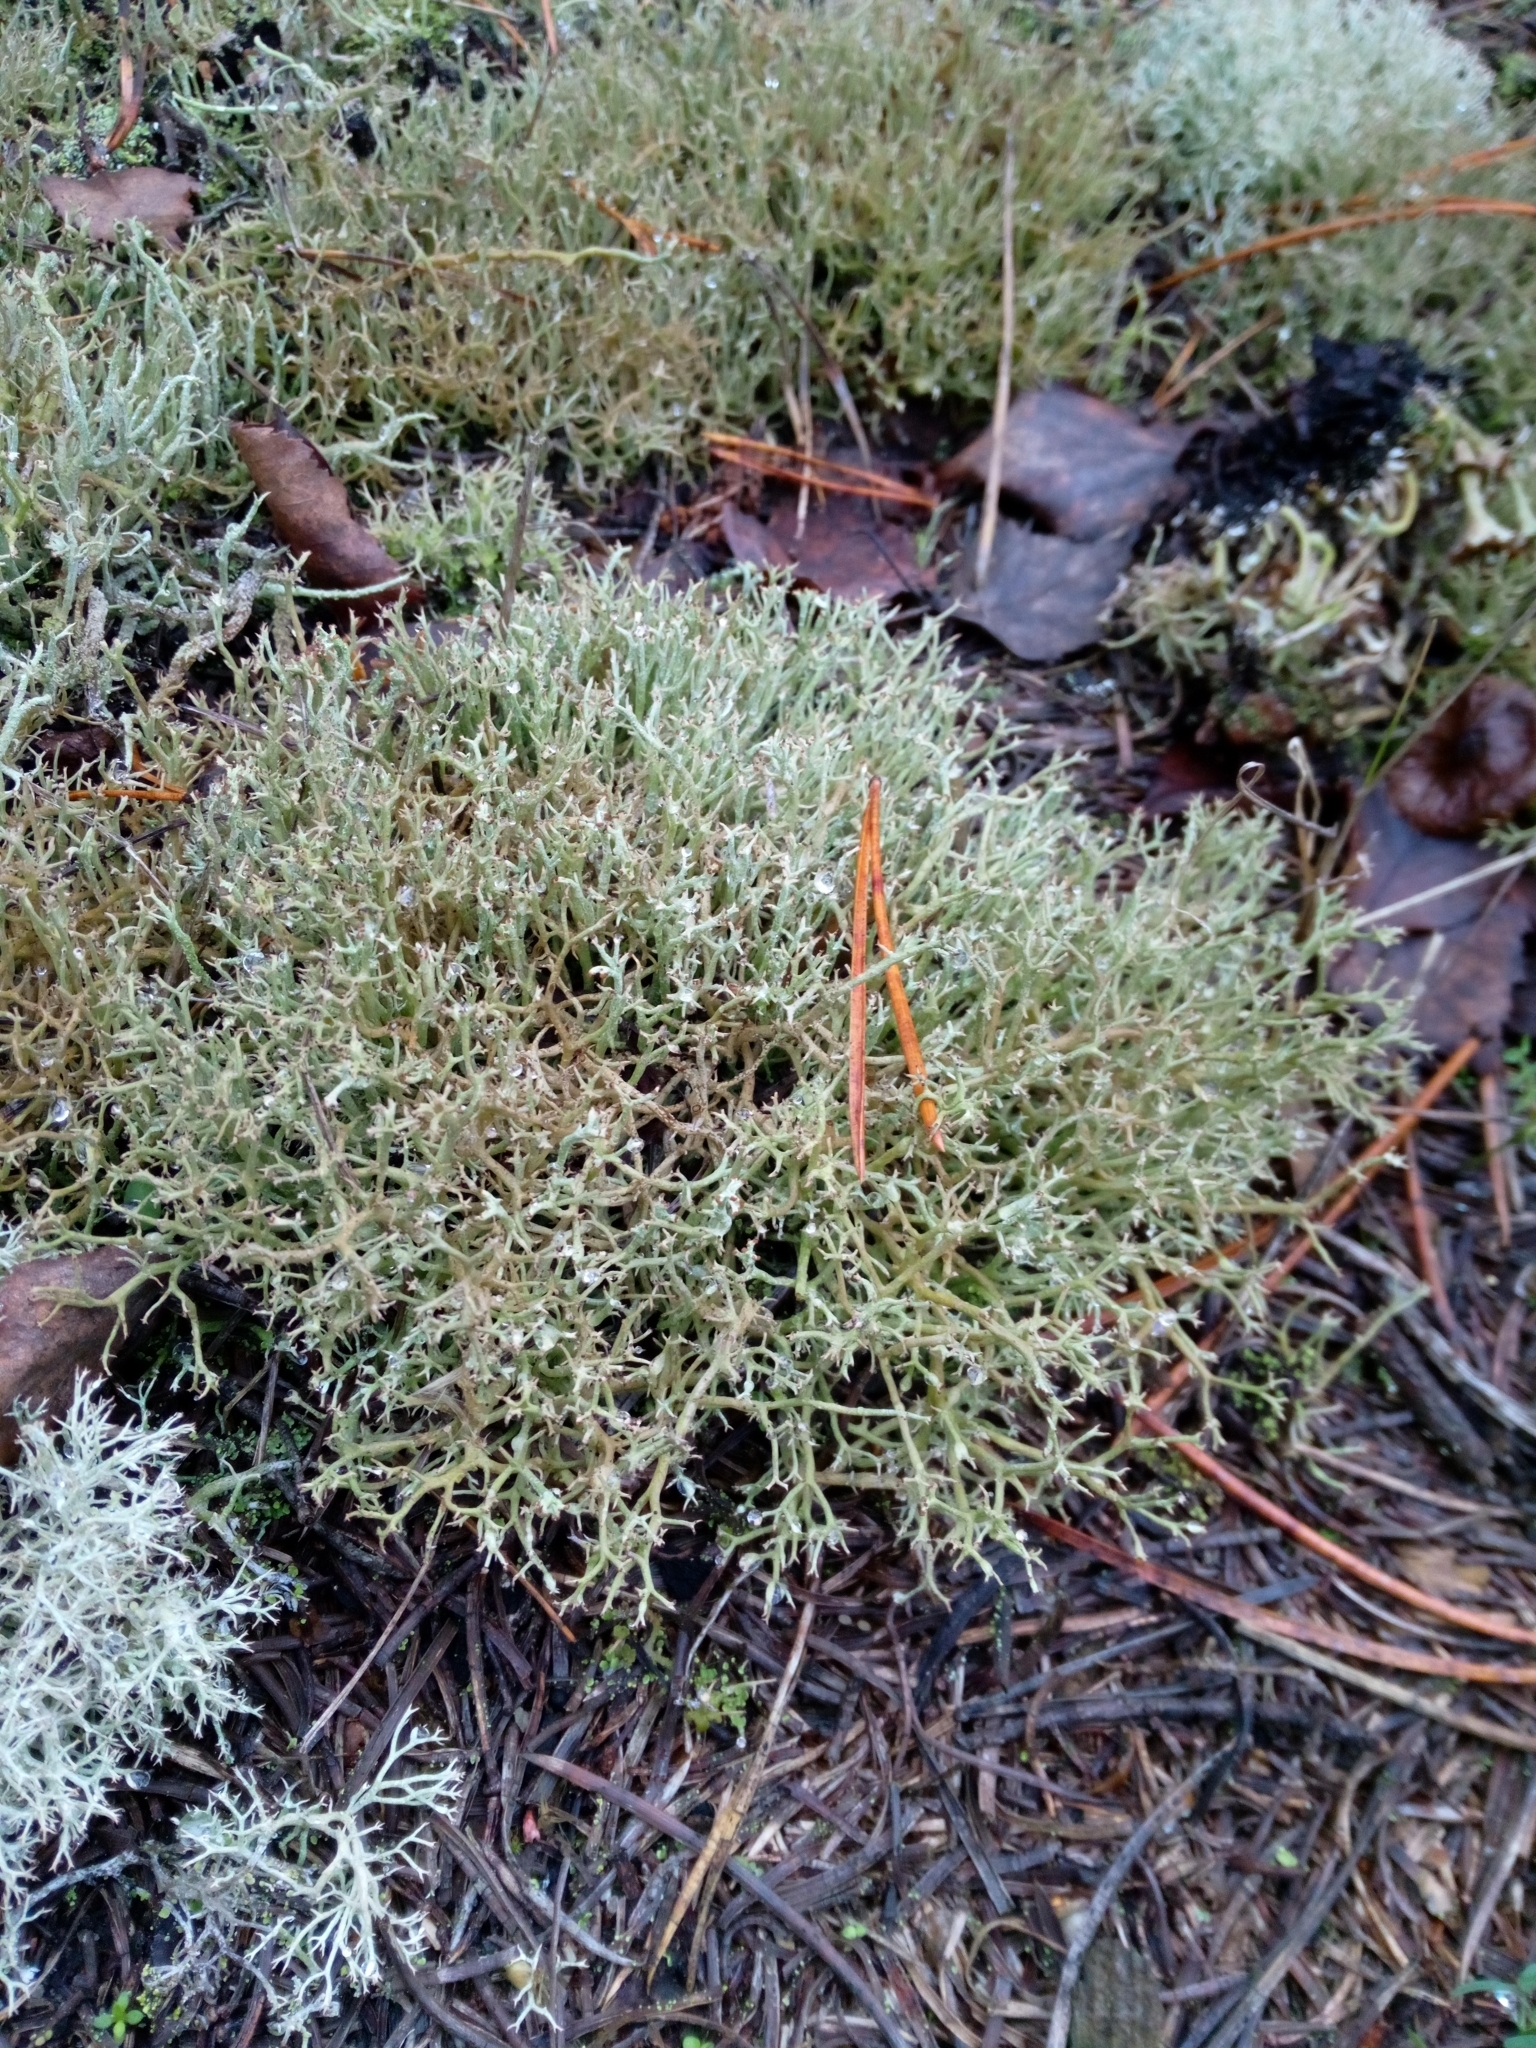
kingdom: Fungi
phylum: Ascomycota
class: Lecanoromycetes
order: Lecanorales
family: Cladoniaceae
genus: Cladonia
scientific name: Cladonia furcata
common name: Many-forked cladonia
